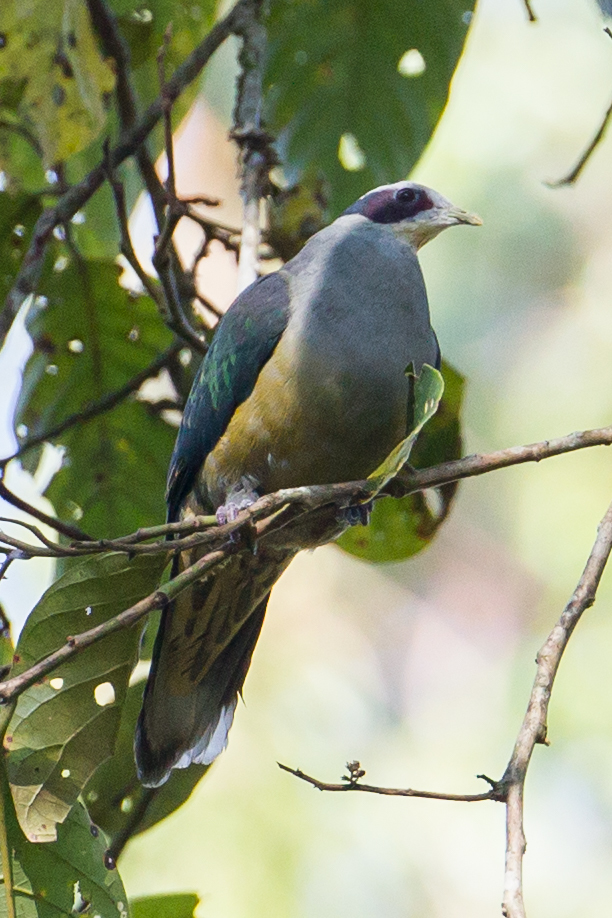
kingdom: Animalia
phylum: Chordata
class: Aves
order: Columbiformes
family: Columbidae
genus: Ptilinopus
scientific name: Ptilinopus fischeri
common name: Red-eared fruit dove
